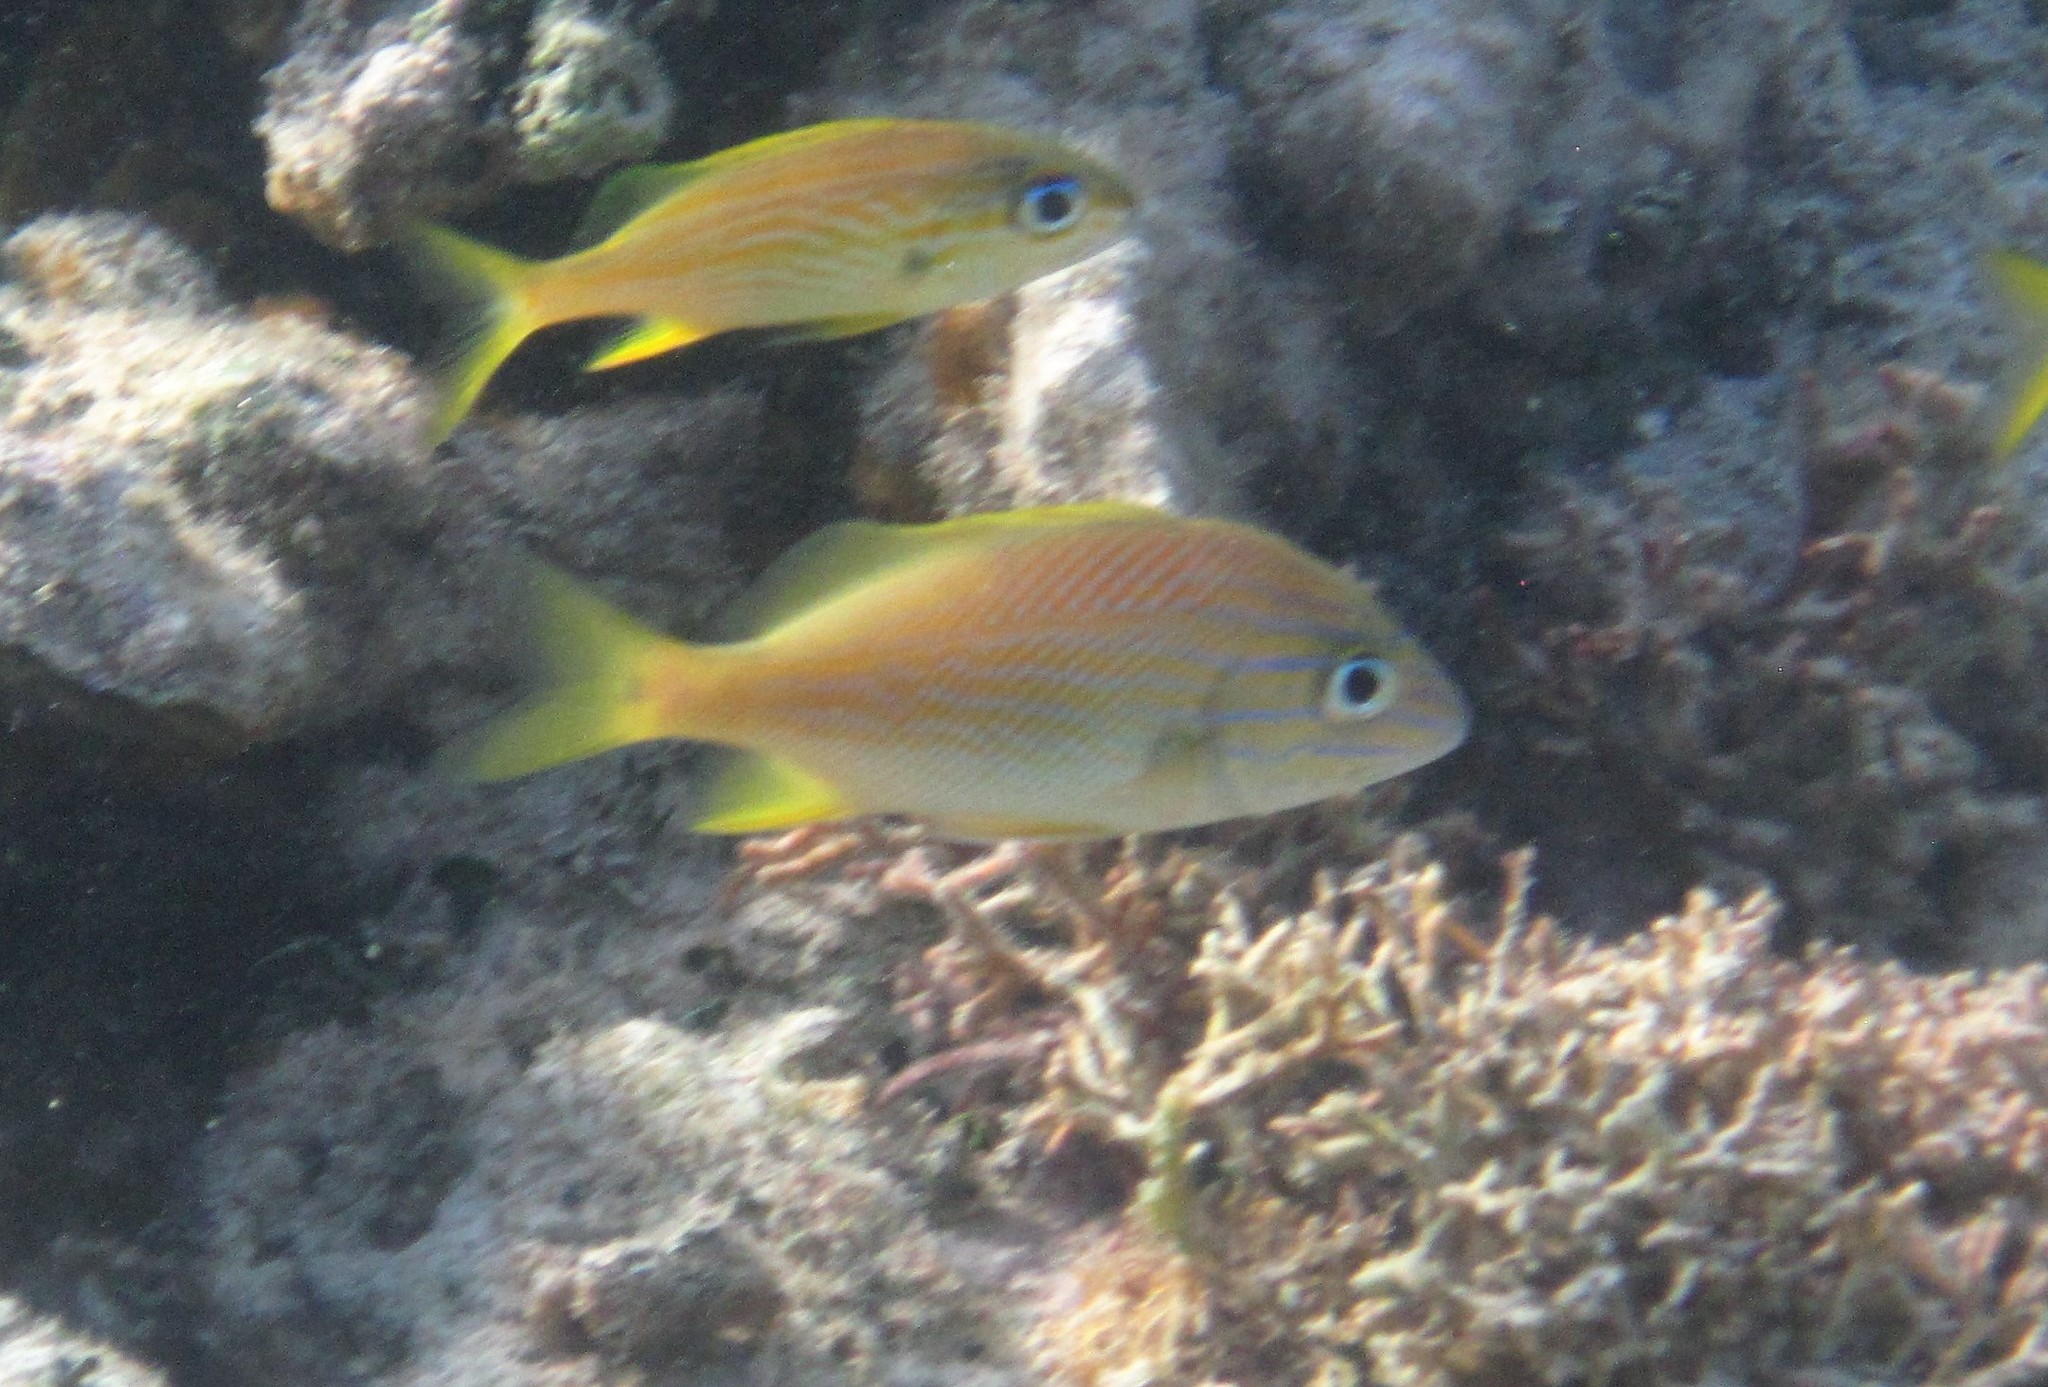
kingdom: Animalia
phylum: Chordata
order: Perciformes
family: Haemulidae
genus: Haemulon
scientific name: Haemulon plumierii
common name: White grunt
